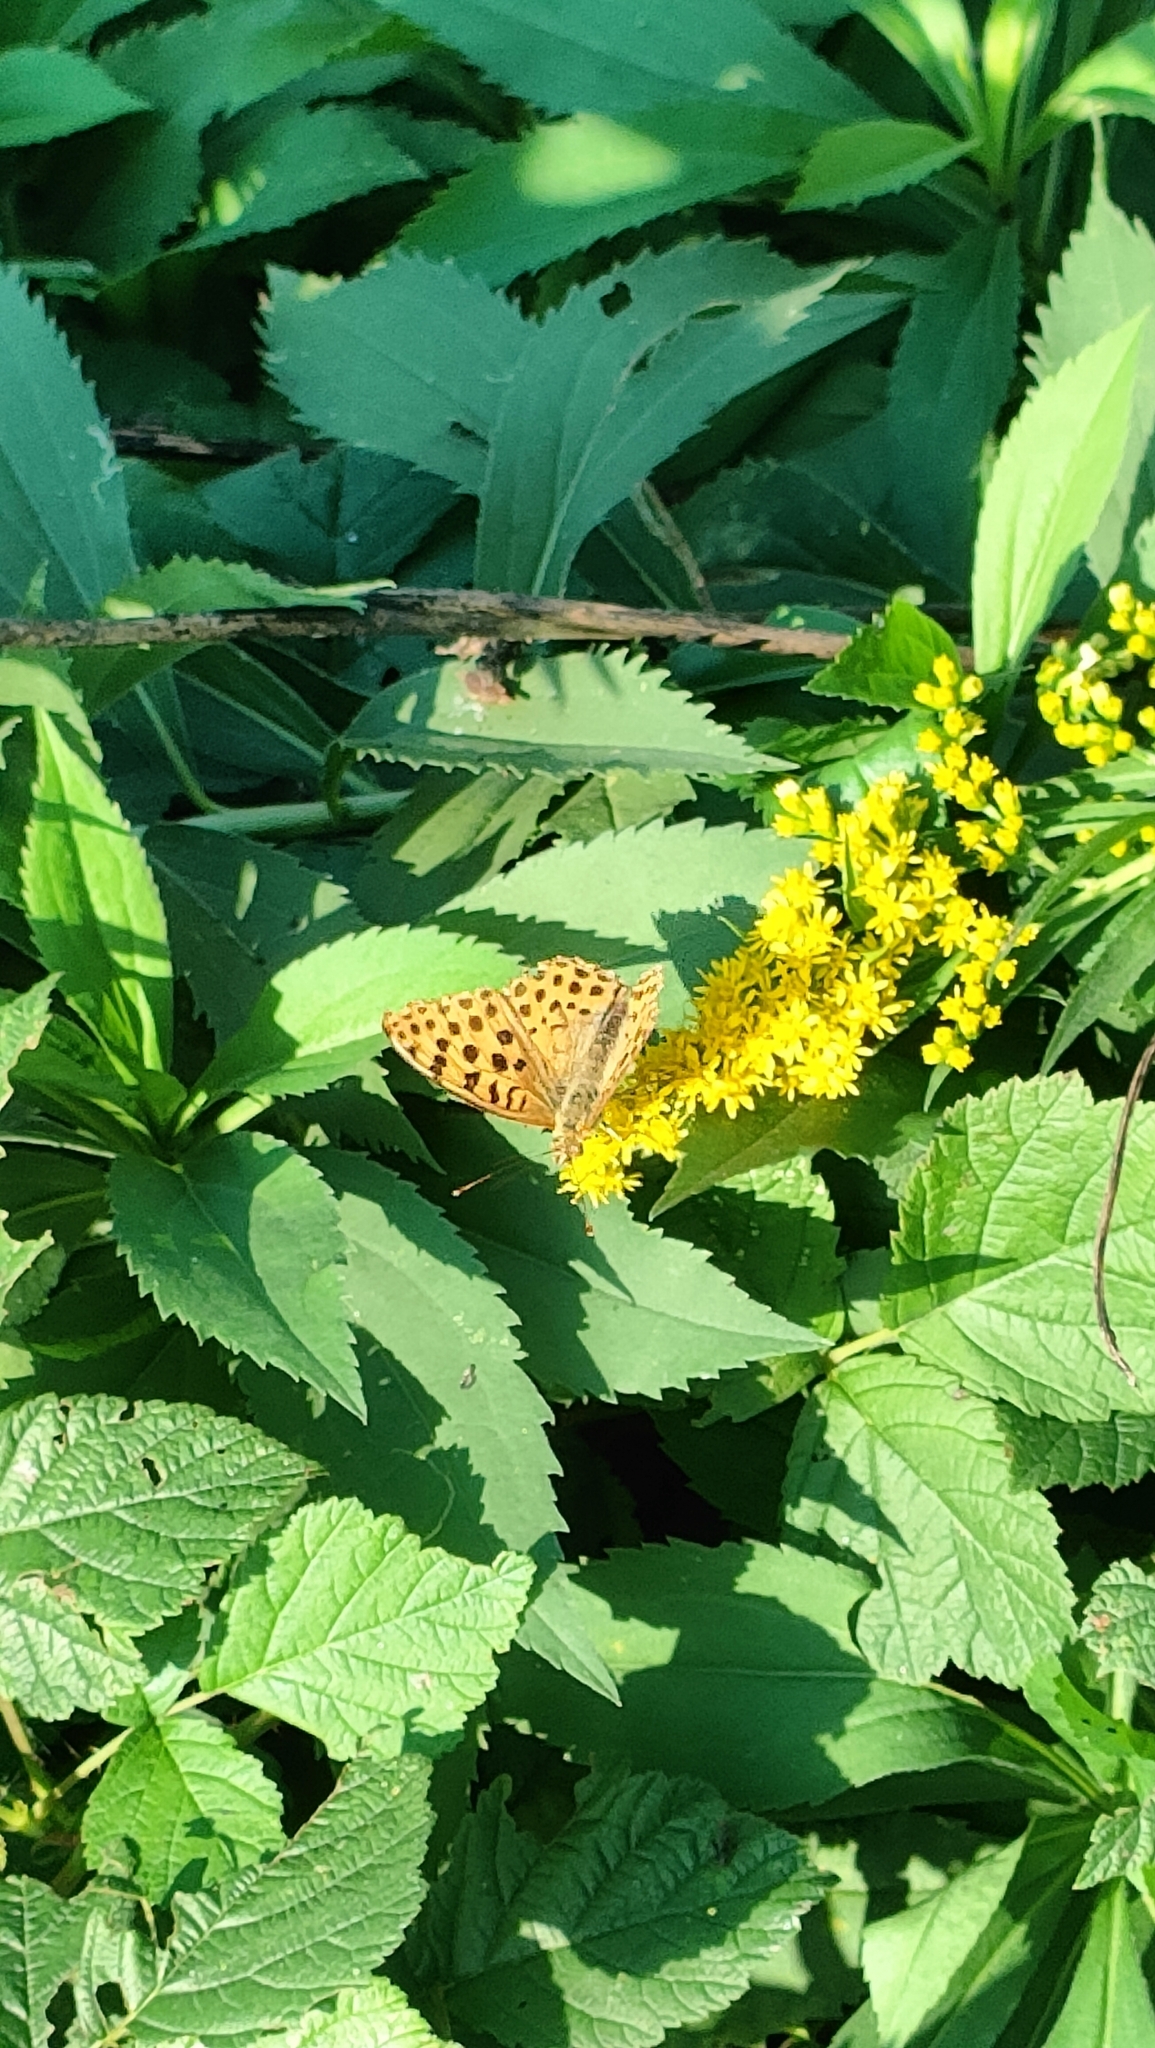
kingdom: Animalia
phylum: Arthropoda
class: Insecta
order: Lepidoptera
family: Nymphalidae
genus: Issoria
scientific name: Issoria lathonia
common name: Queen of spain fritillary
